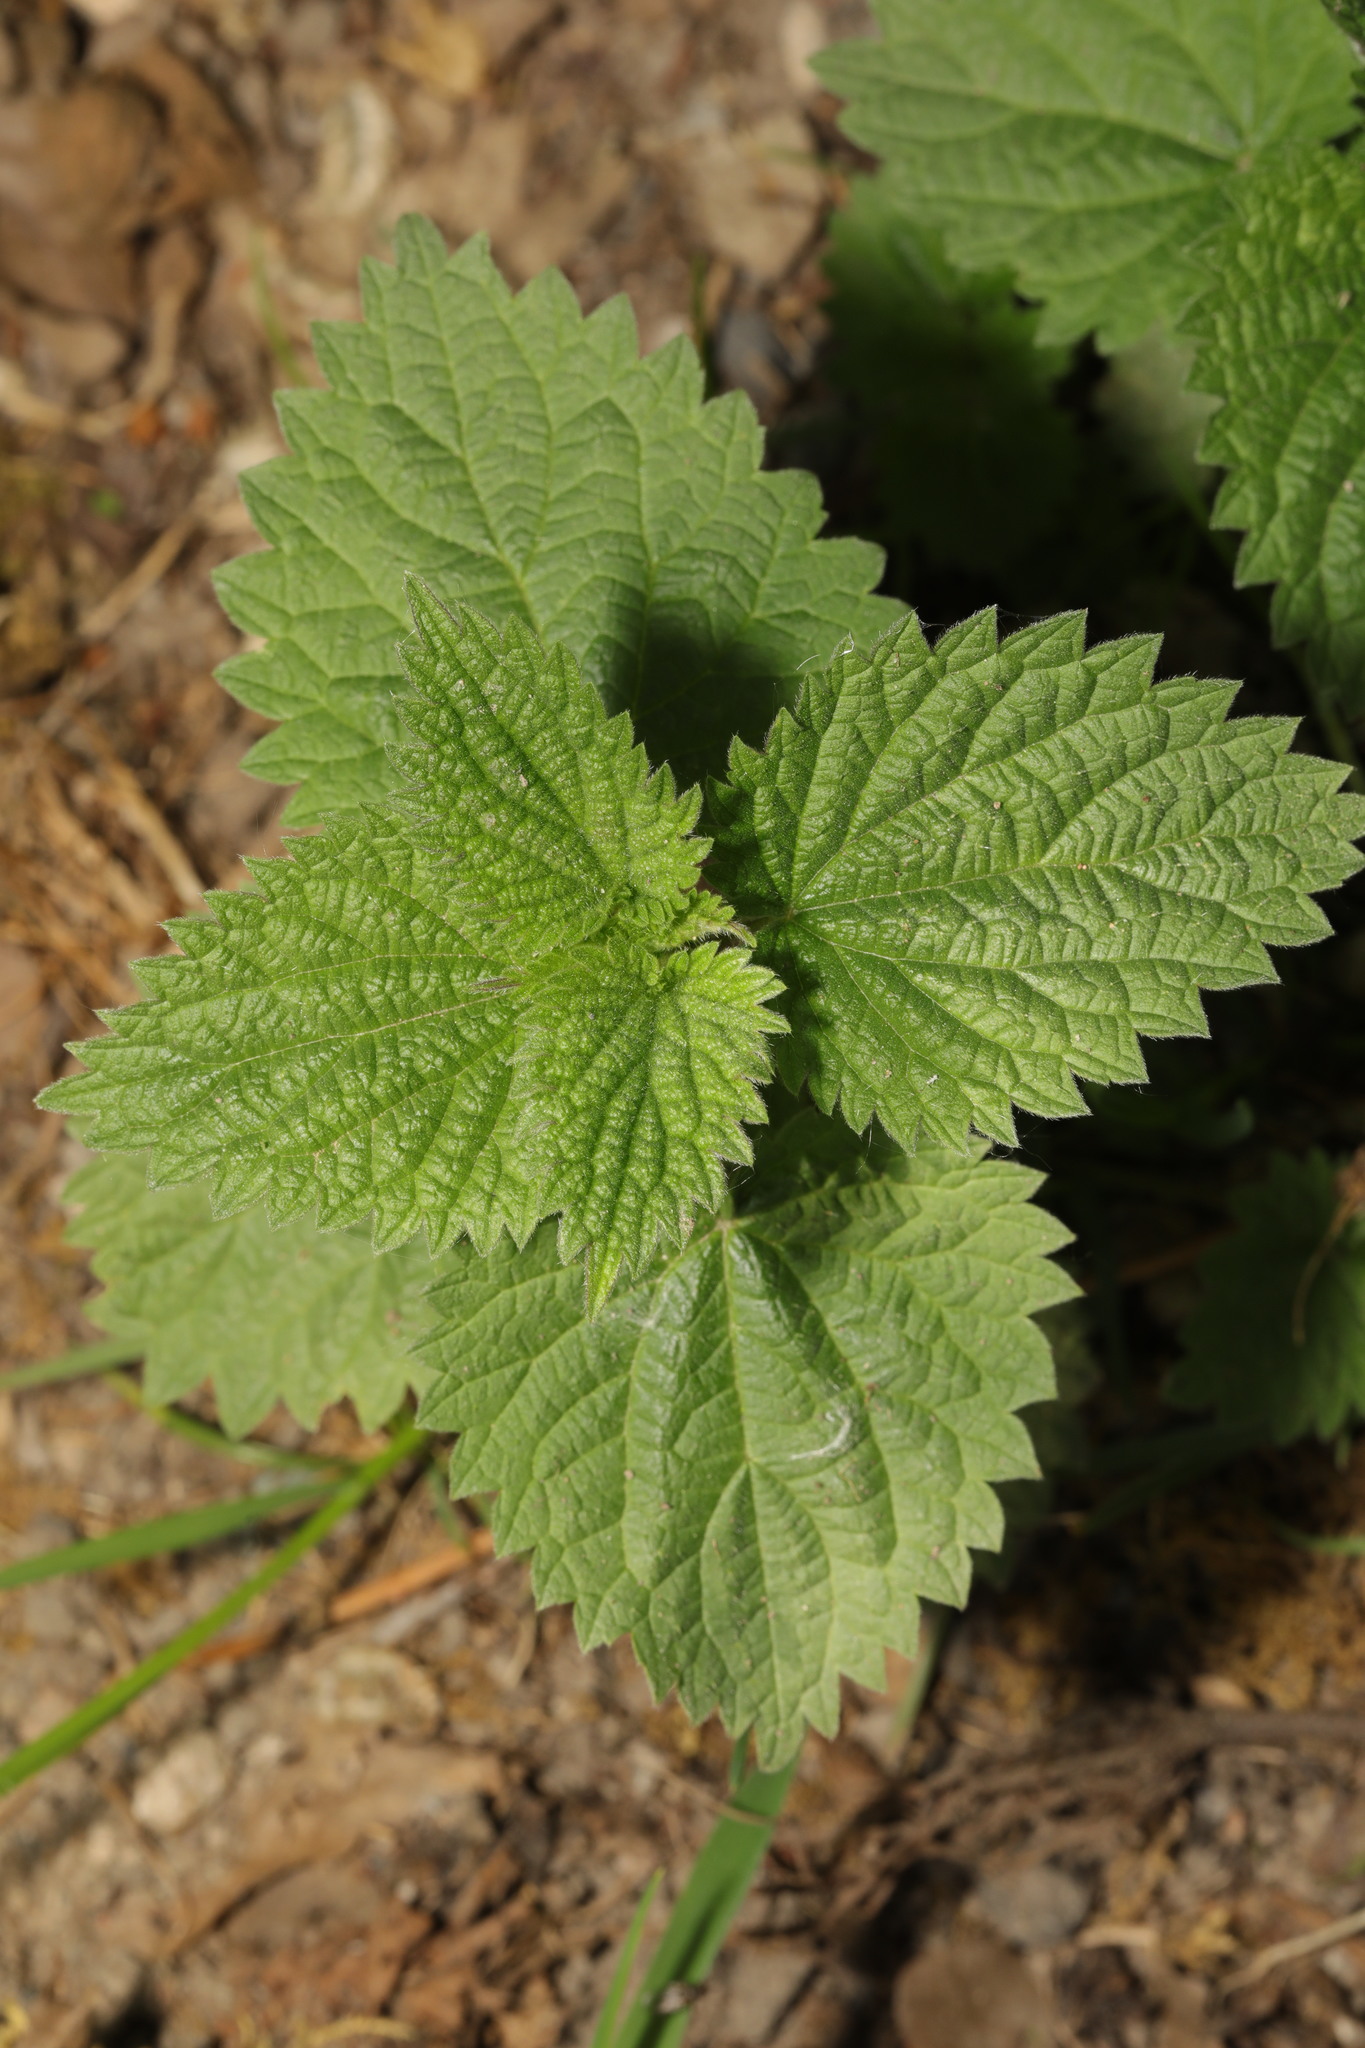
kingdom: Plantae
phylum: Tracheophyta
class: Magnoliopsida
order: Rosales
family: Urticaceae
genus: Urtica
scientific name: Urtica dioica
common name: Common nettle
